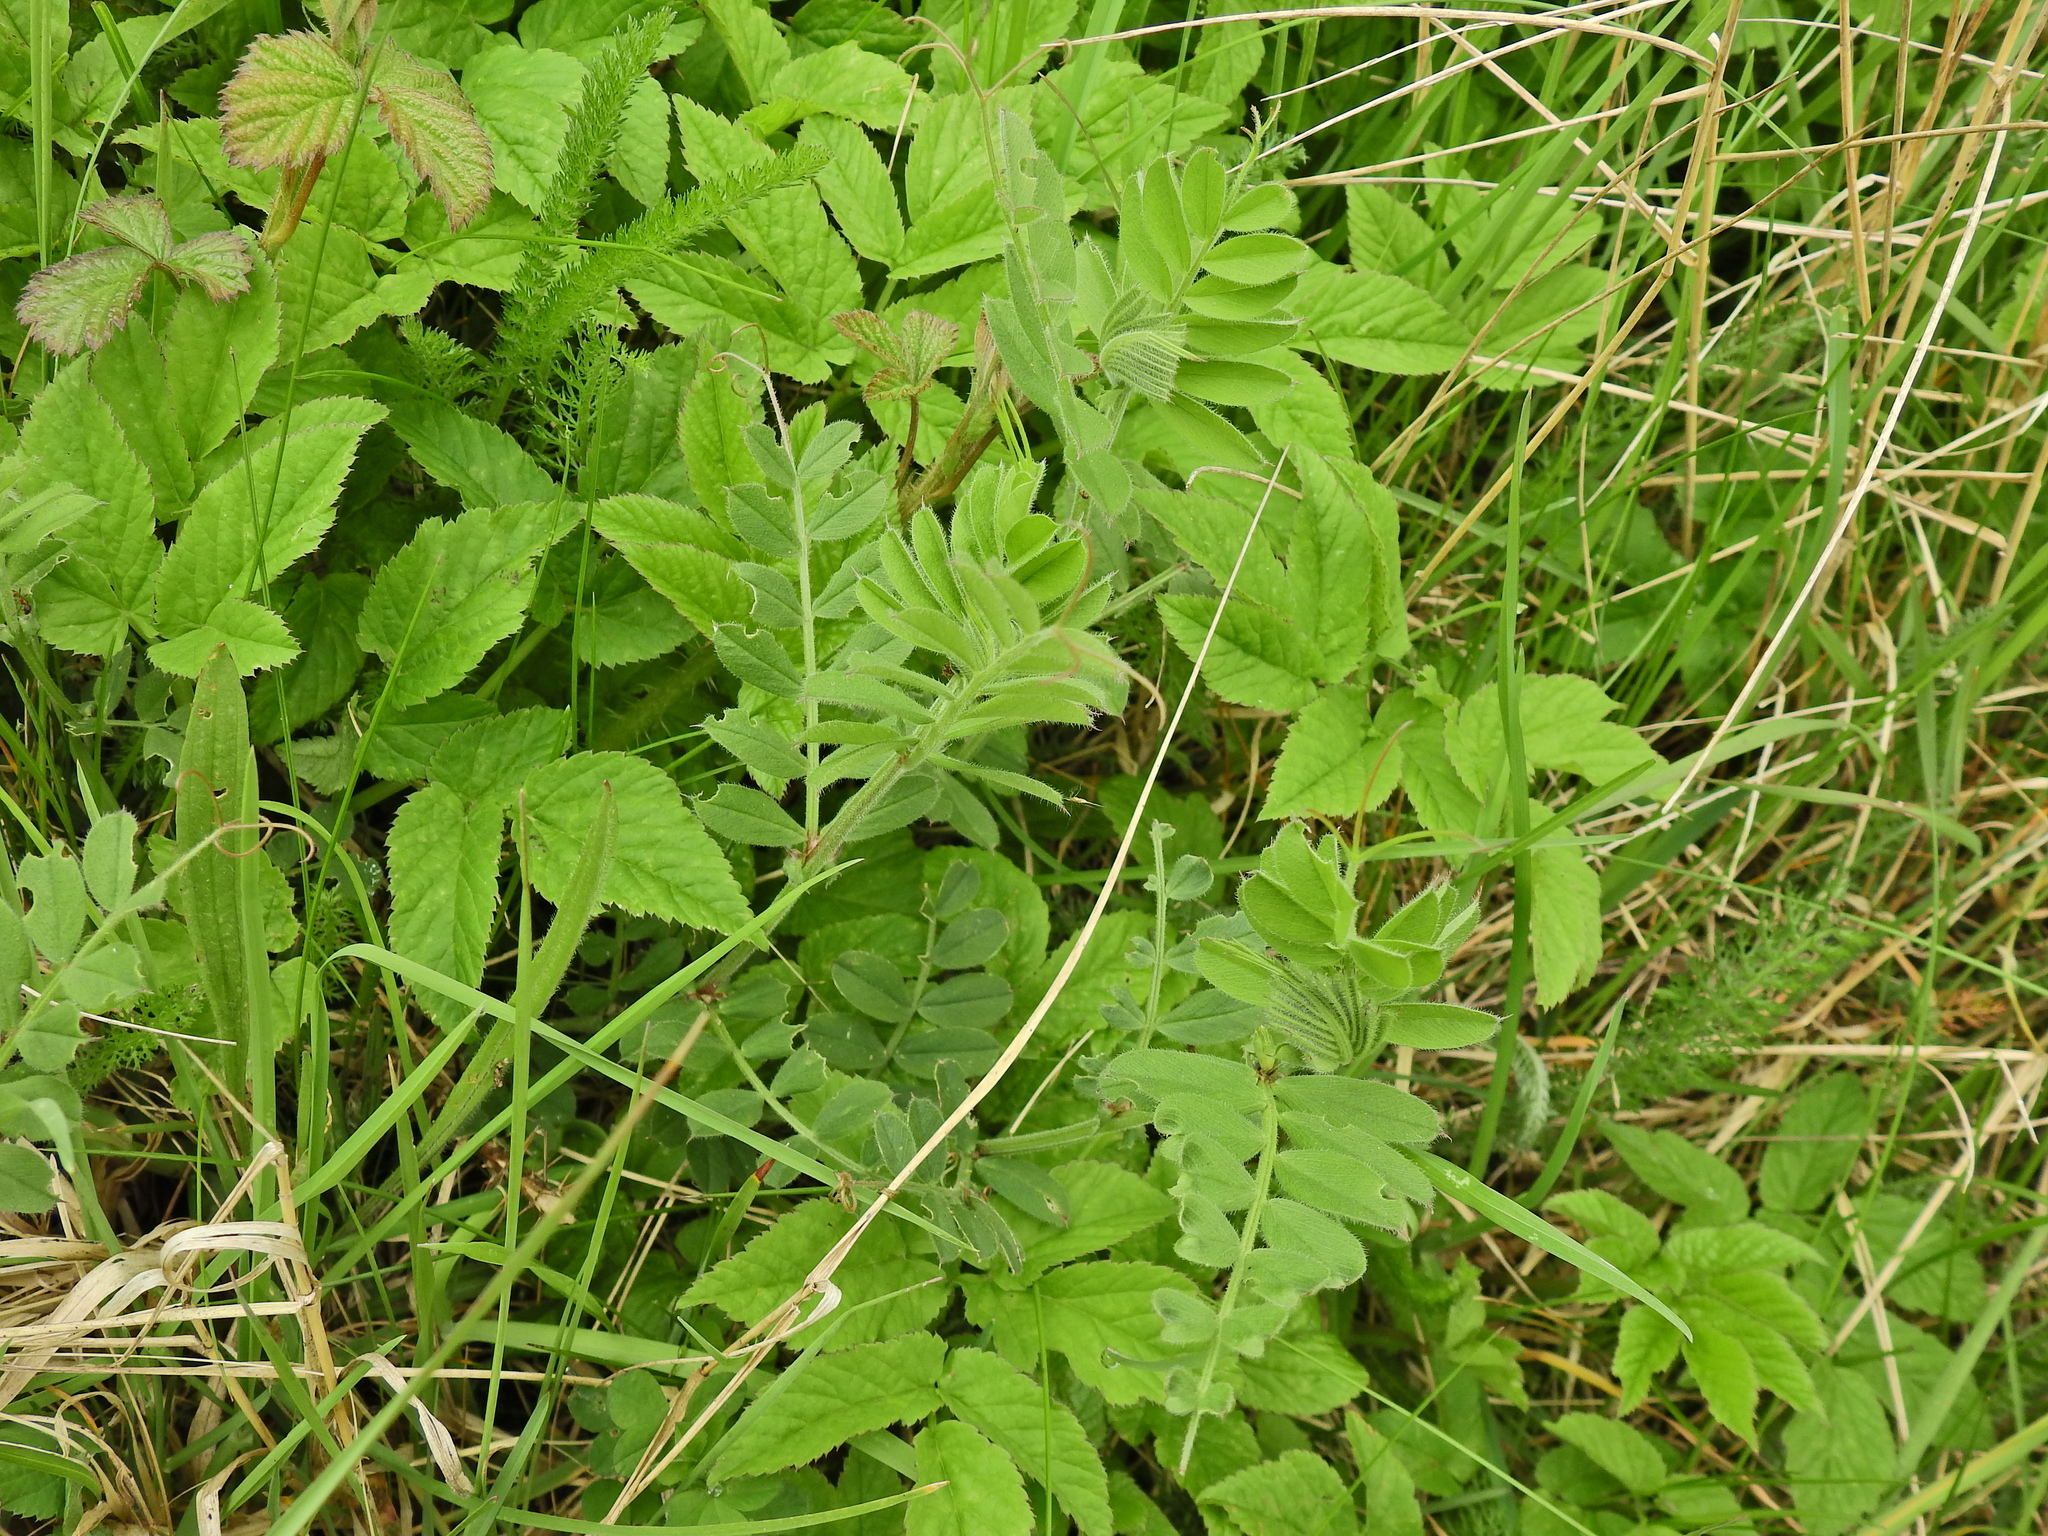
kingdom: Plantae
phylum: Tracheophyta
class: Magnoliopsida
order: Fabales
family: Fabaceae
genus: Vicia
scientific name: Vicia sepium
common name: Bush vetch
